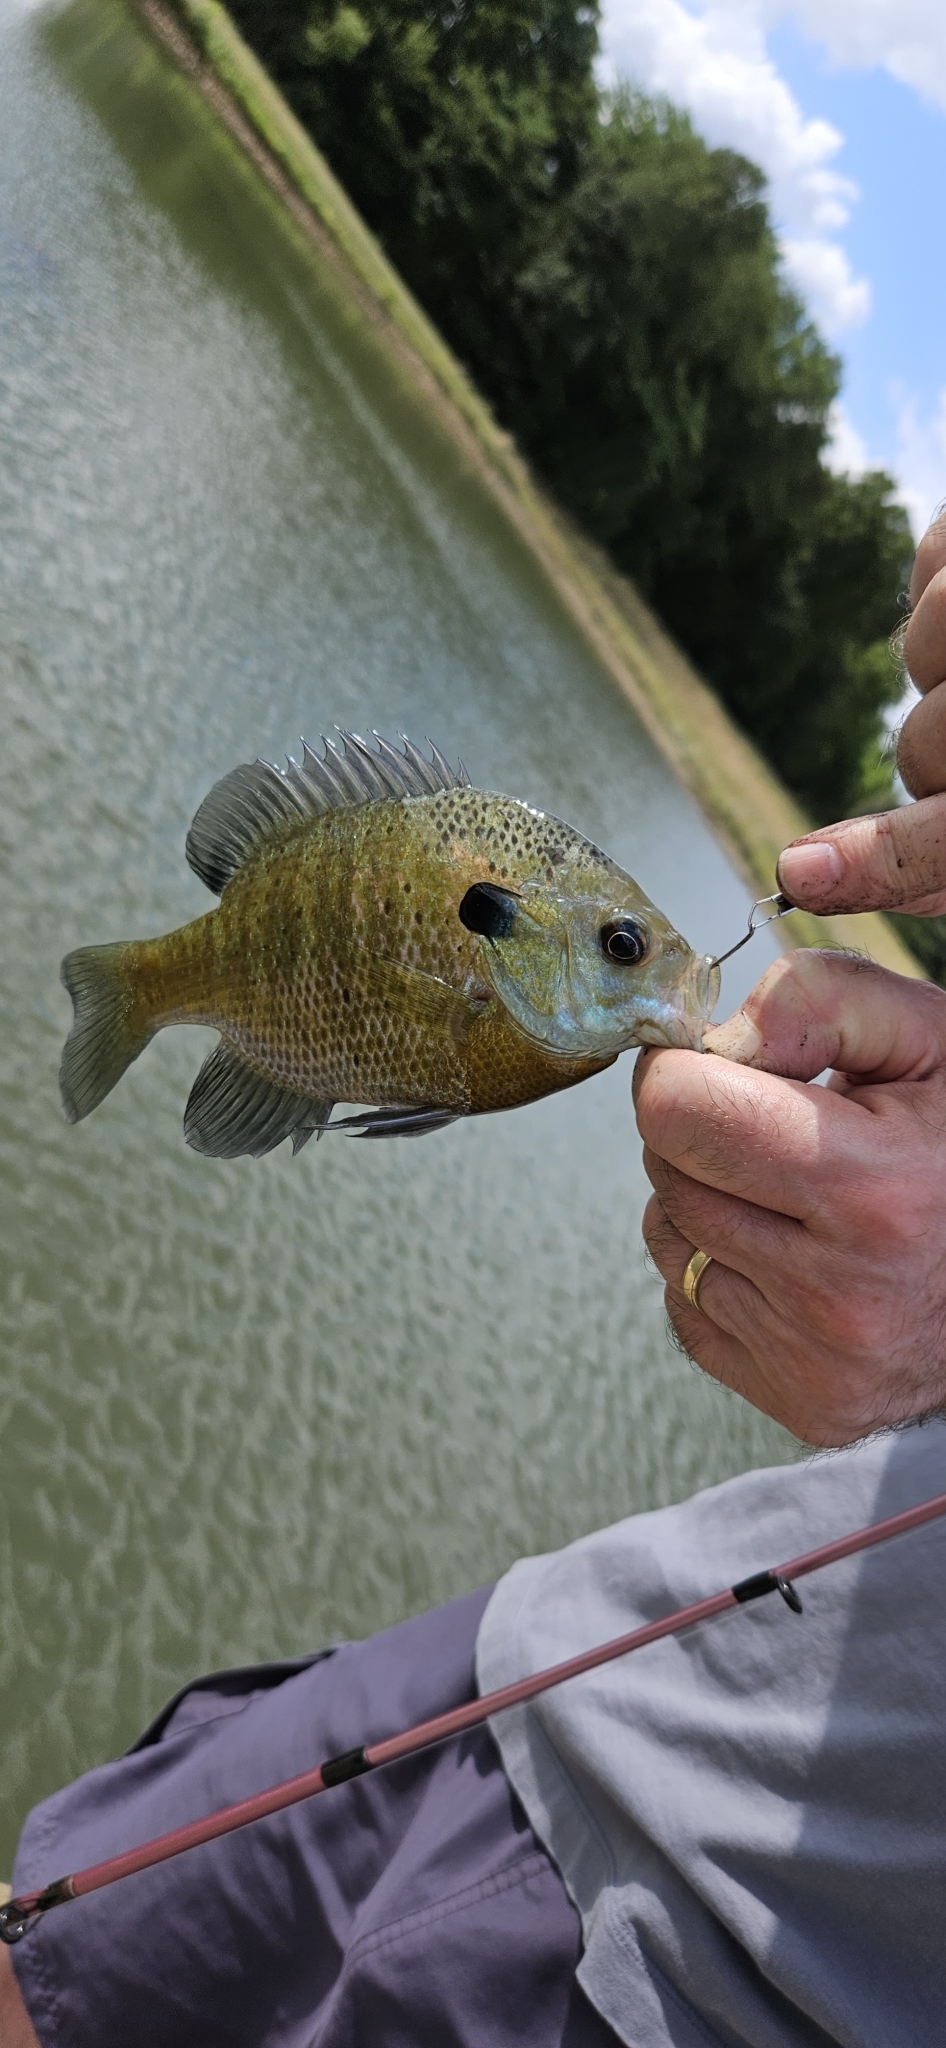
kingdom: Animalia
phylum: Chordata
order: Perciformes
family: Centrarchidae
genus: Lepomis
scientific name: Lepomis macrochirus
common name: Bluegill
